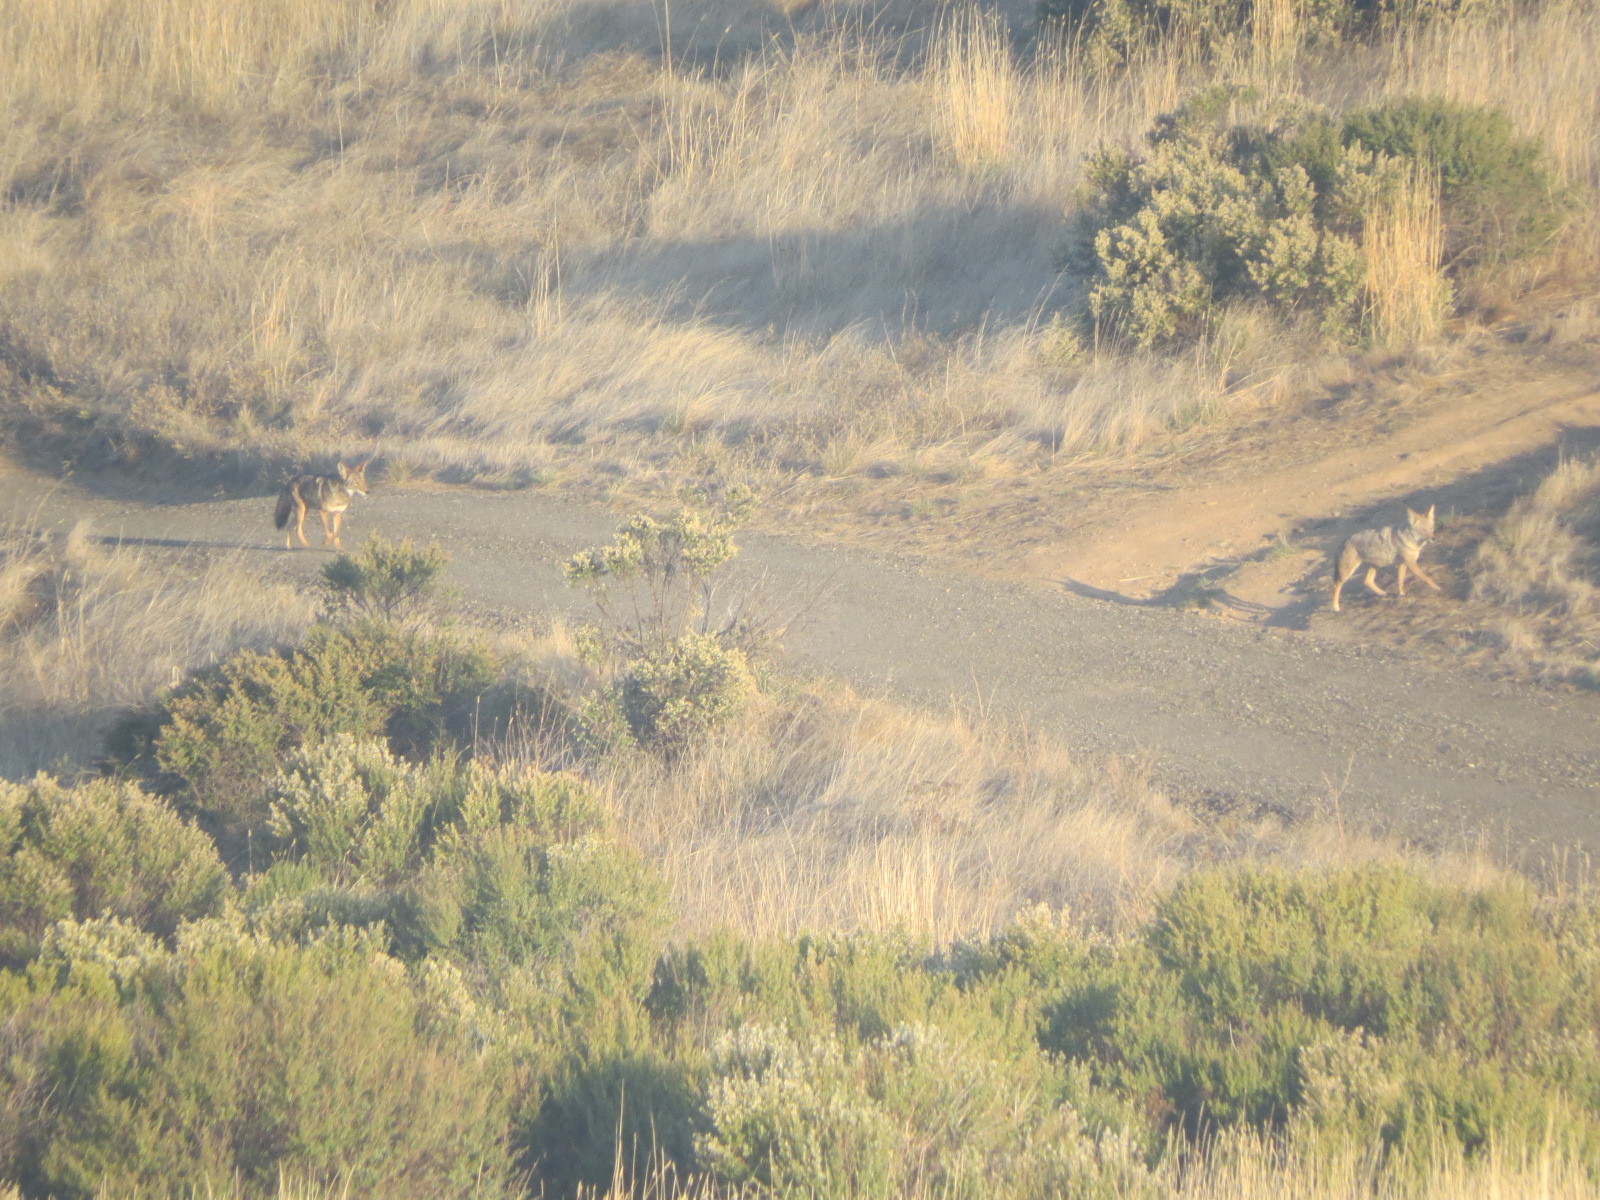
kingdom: Animalia
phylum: Chordata
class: Mammalia
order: Carnivora
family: Canidae
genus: Canis
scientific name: Canis latrans
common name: Coyote
